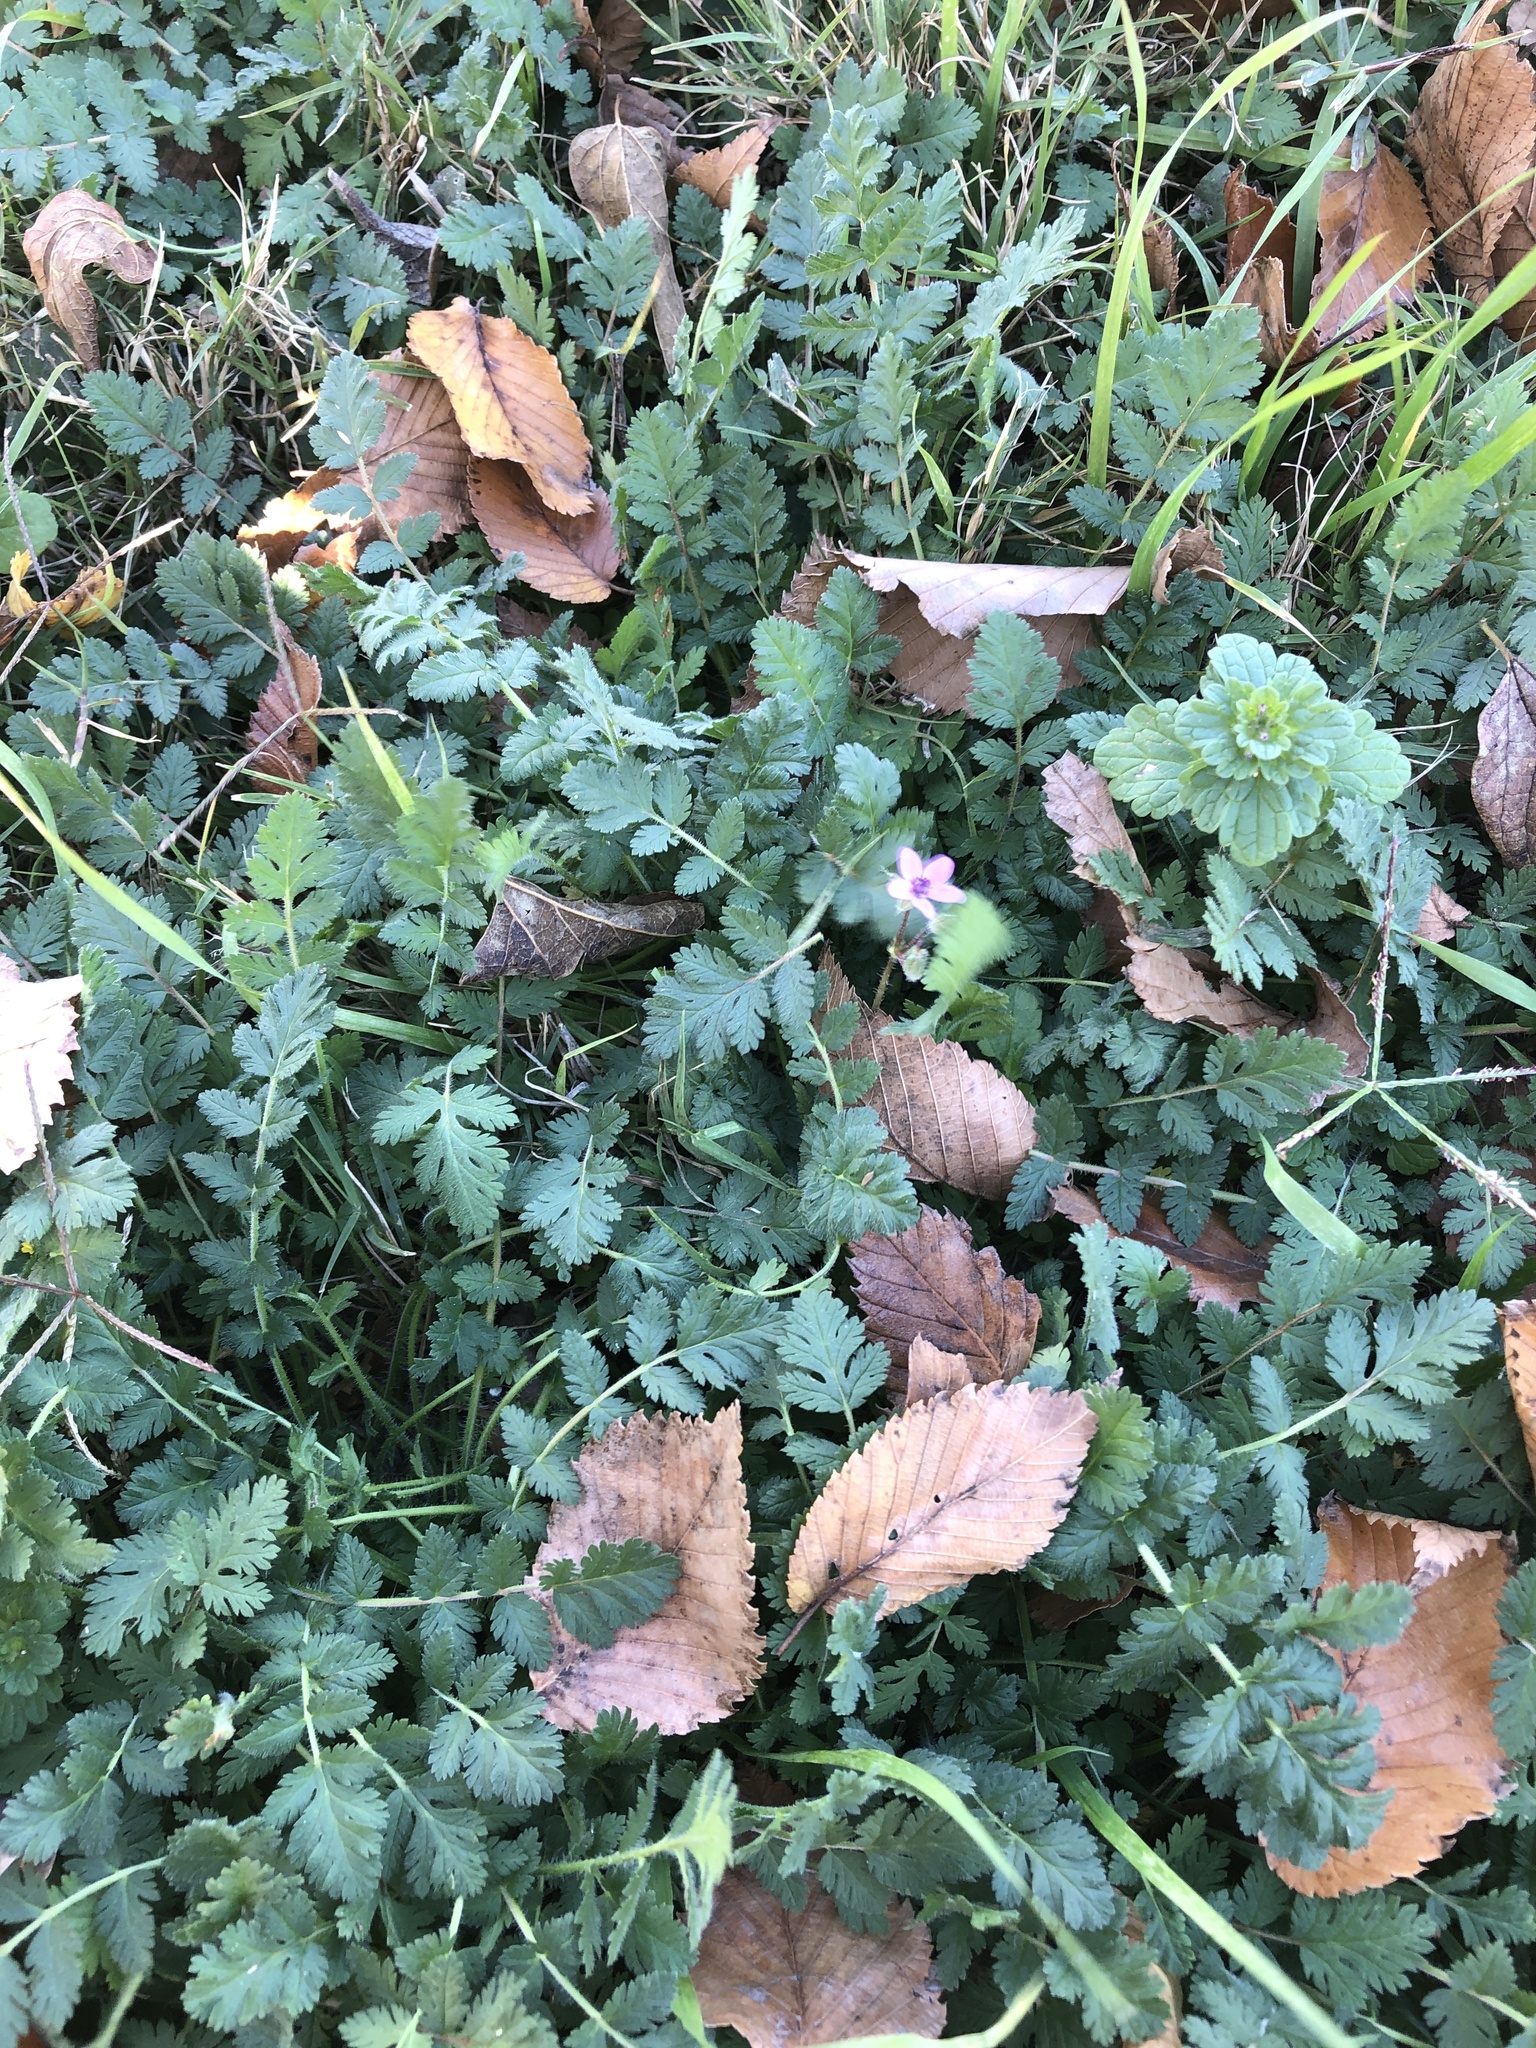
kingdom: Plantae
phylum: Tracheophyta
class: Magnoliopsida
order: Geraniales
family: Geraniaceae
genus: Erodium
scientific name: Erodium cicutarium
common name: Common stork's-bill
